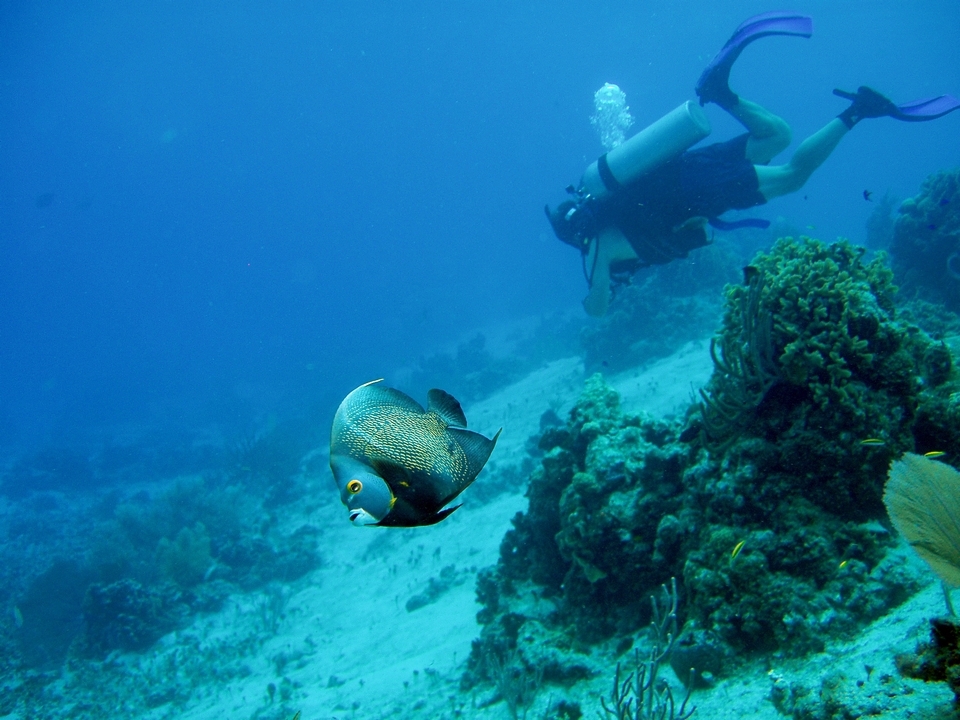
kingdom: Animalia
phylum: Chordata
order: Perciformes
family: Pomacanthidae
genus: Pomacanthus
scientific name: Pomacanthus paru
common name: French angelfish
